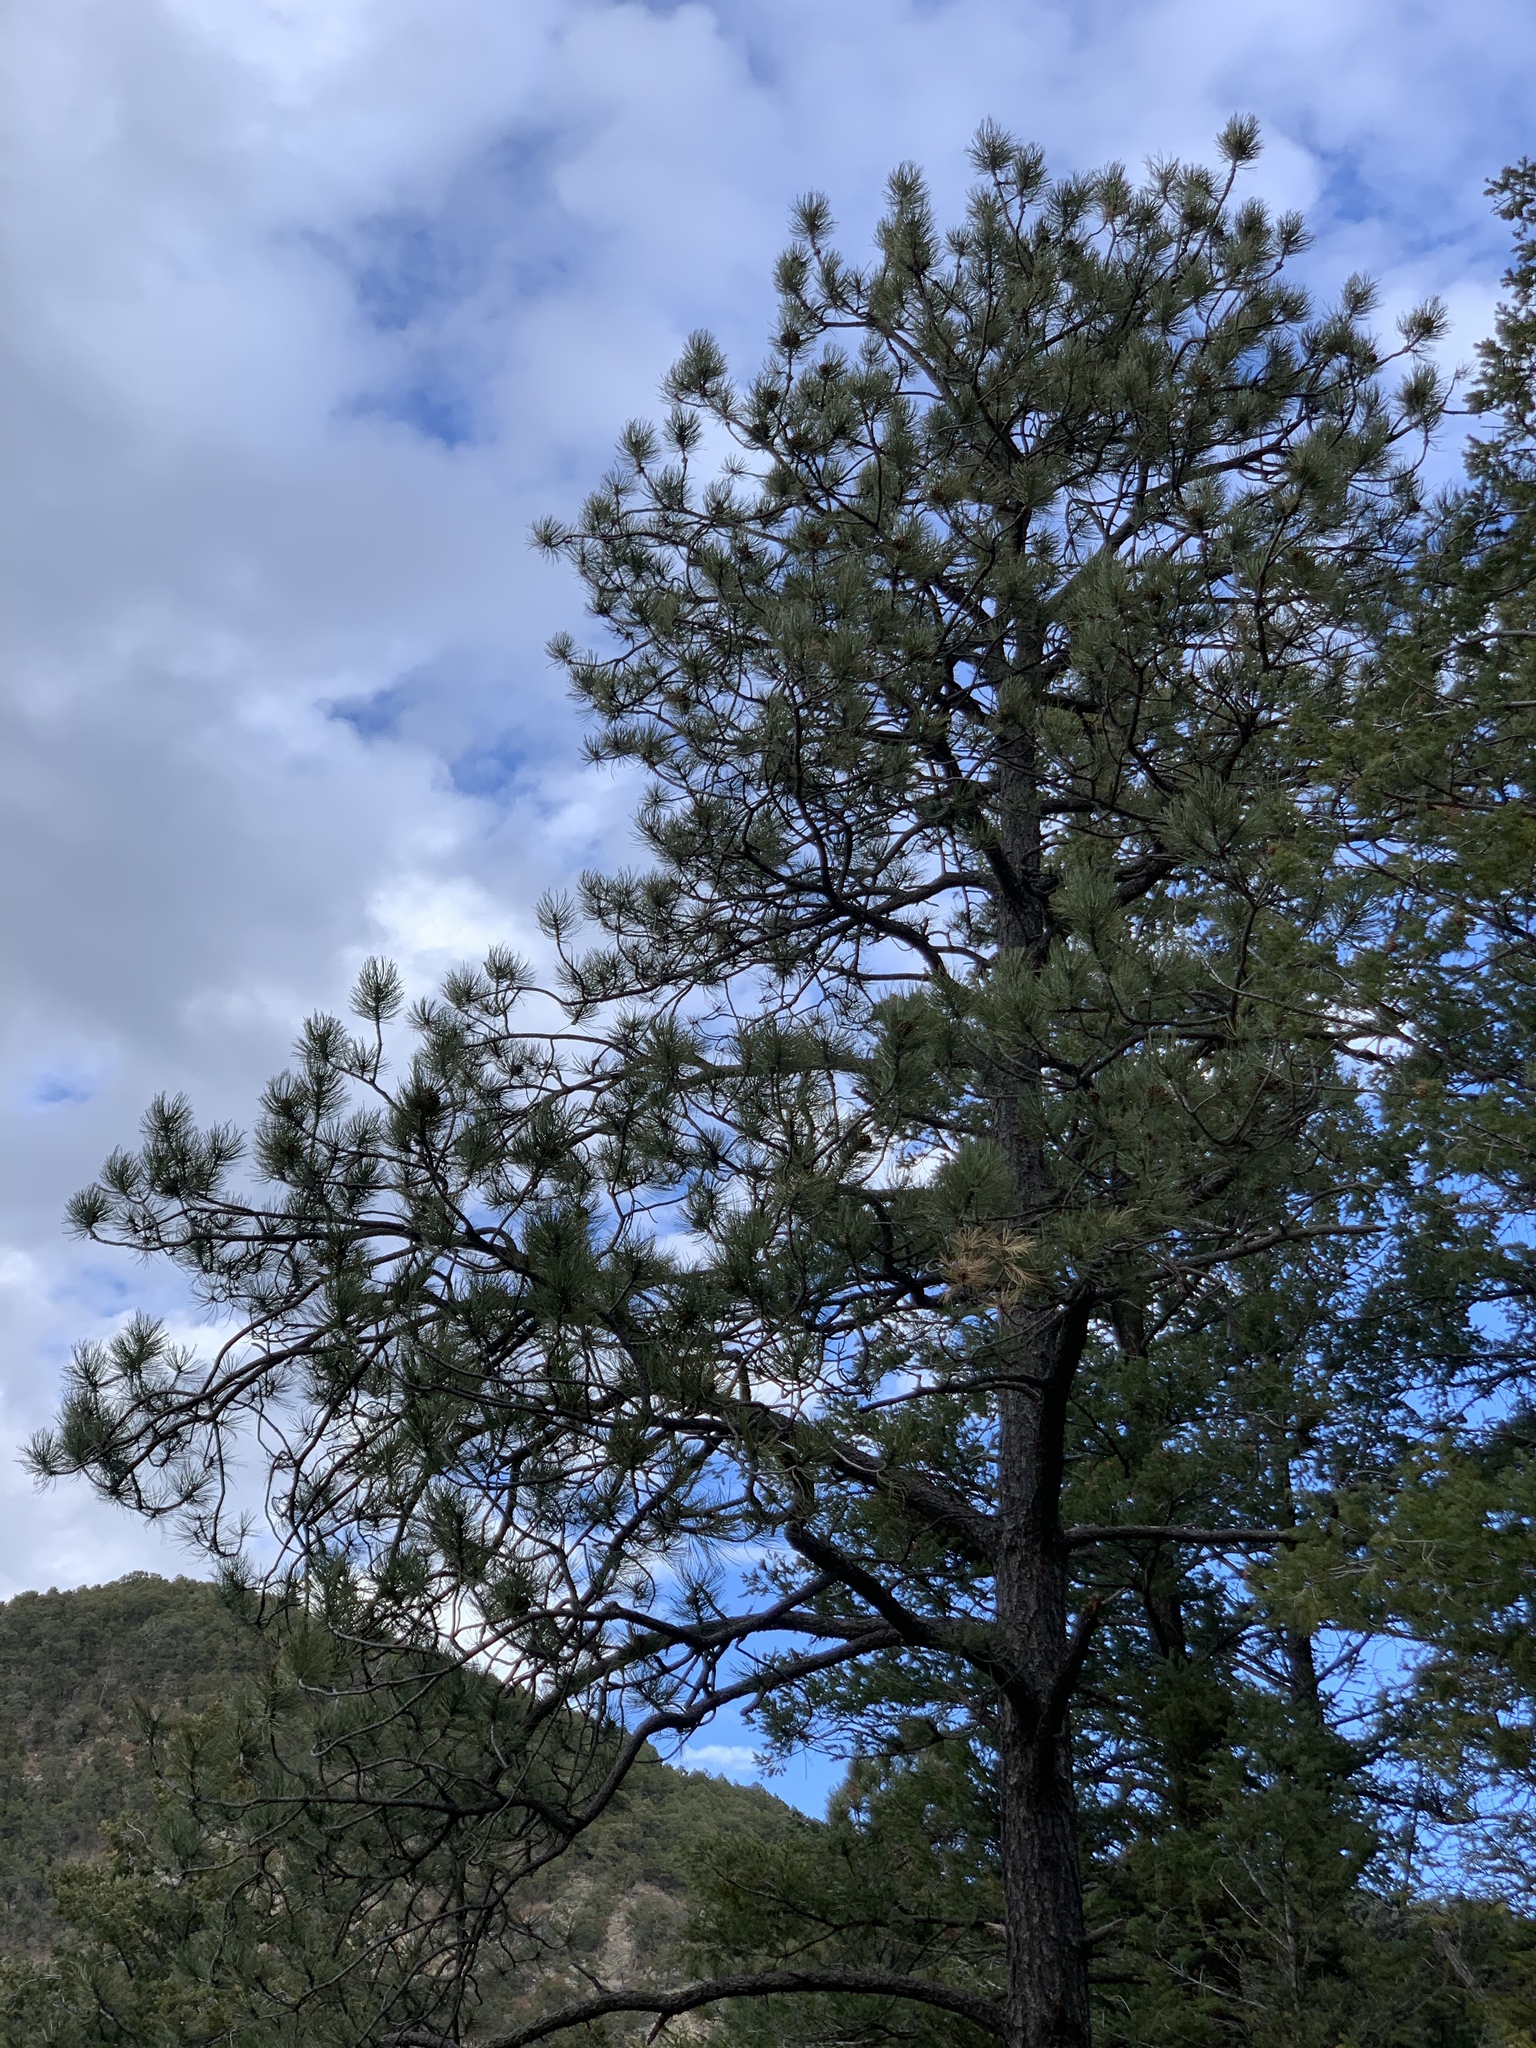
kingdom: Plantae
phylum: Tracheophyta
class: Pinopsida
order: Pinales
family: Pinaceae
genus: Pinus
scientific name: Pinus ponderosa
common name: Western yellow-pine
